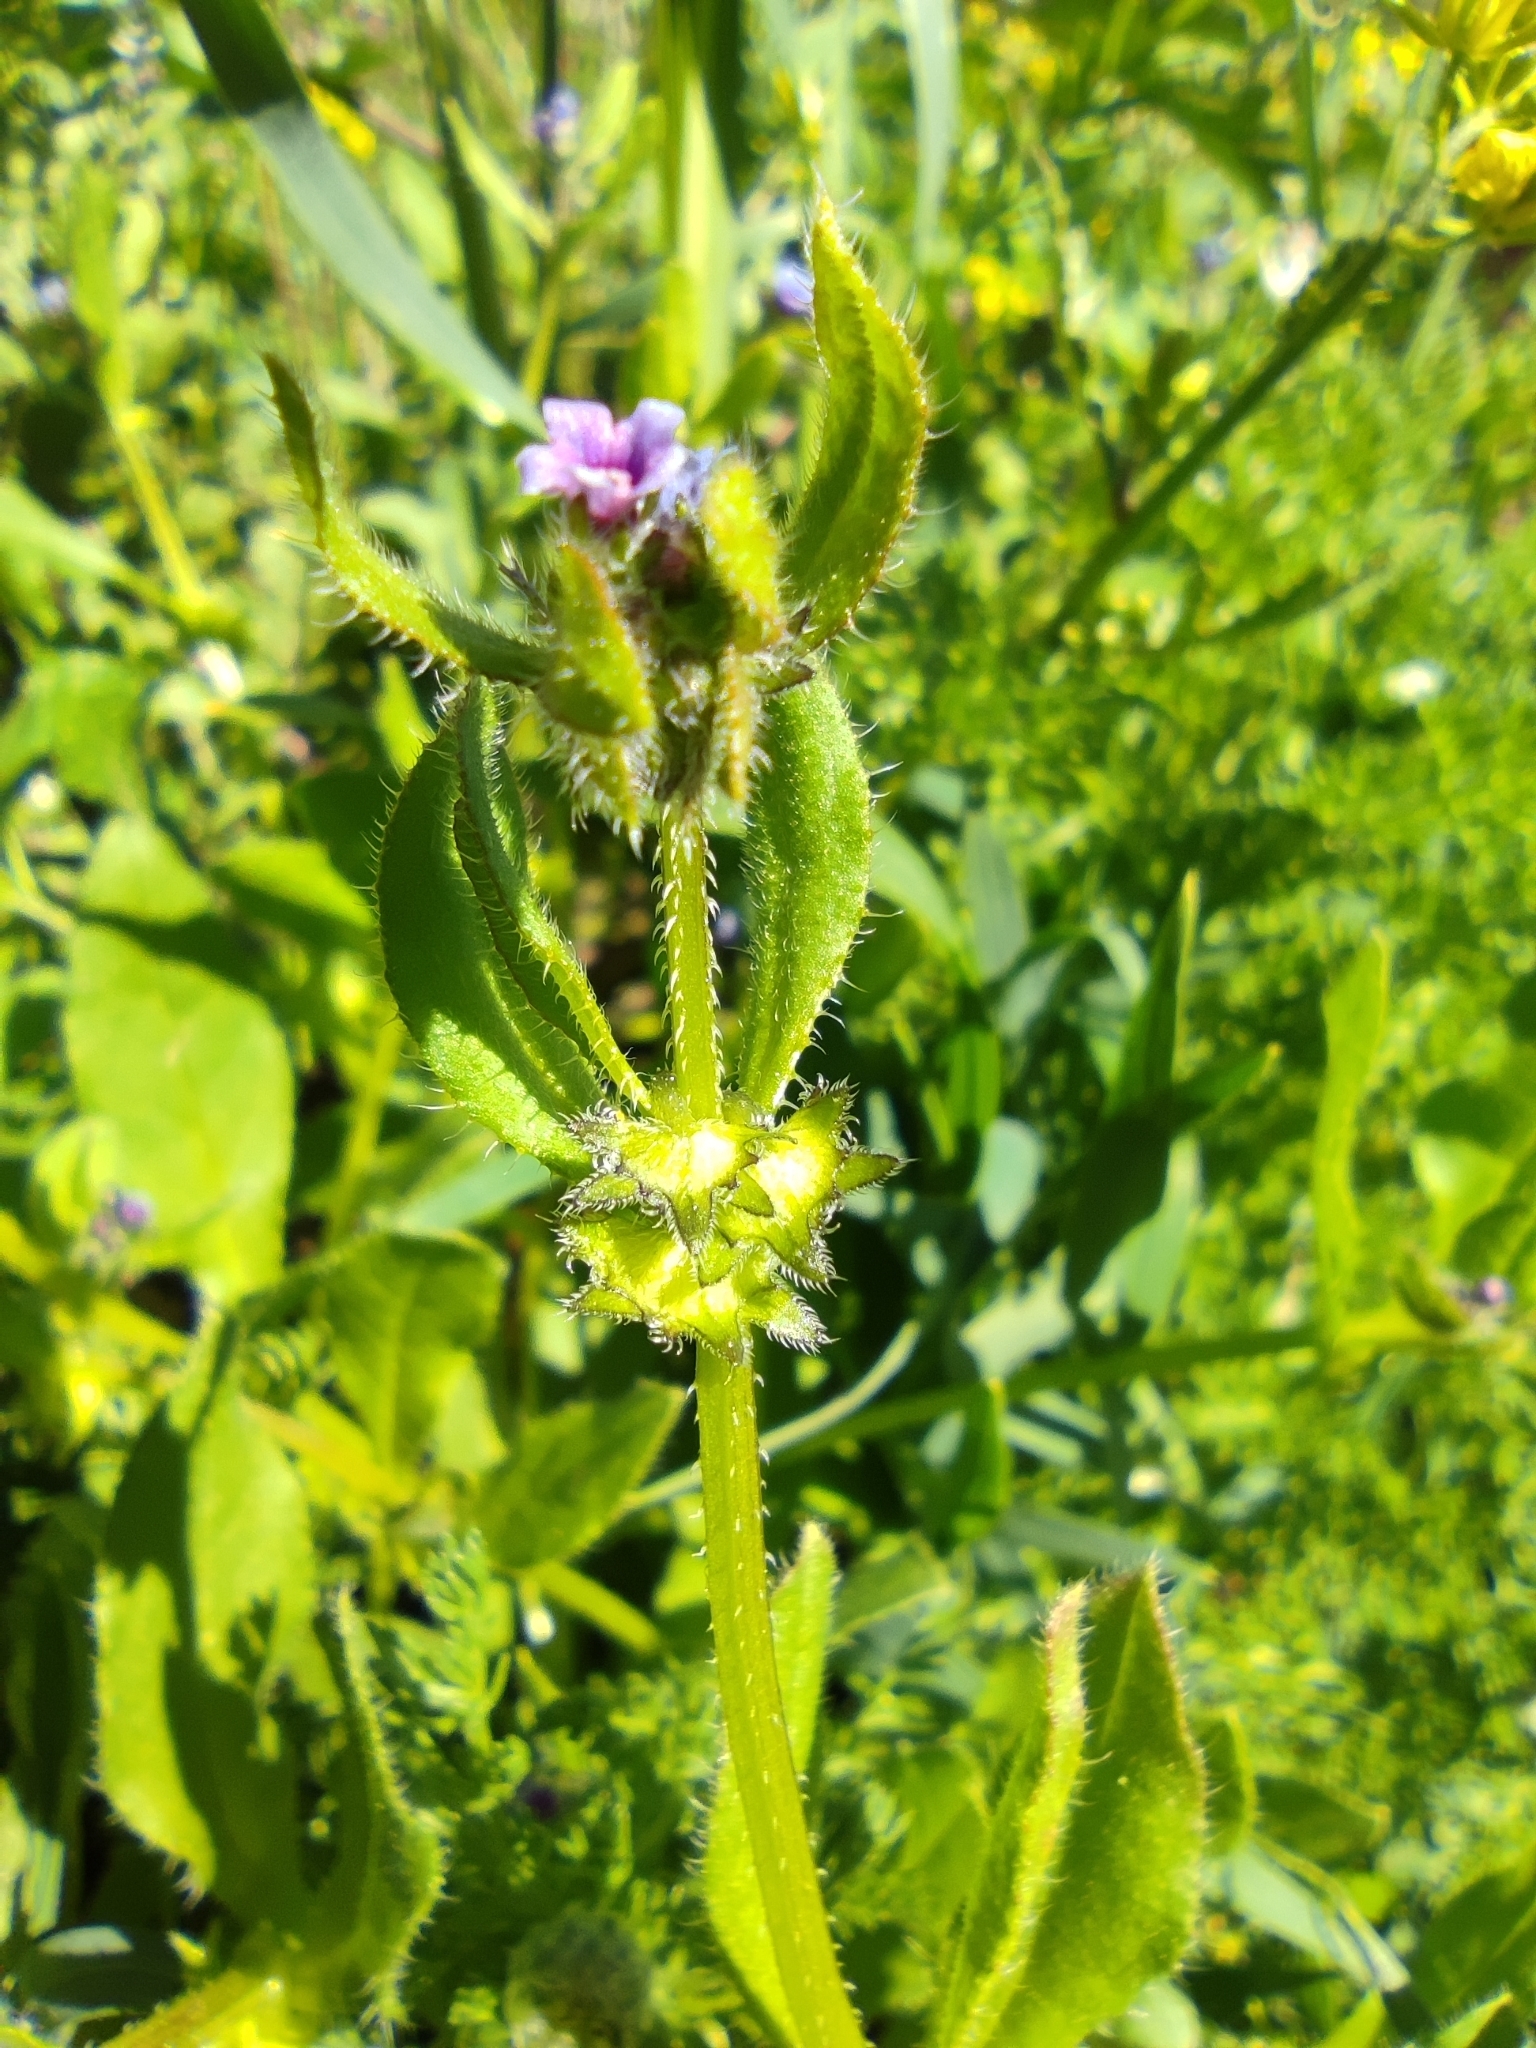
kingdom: Plantae
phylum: Tracheophyta
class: Magnoliopsida
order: Boraginales
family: Boraginaceae
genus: Asperugo
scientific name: Asperugo procumbens
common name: Madwort
